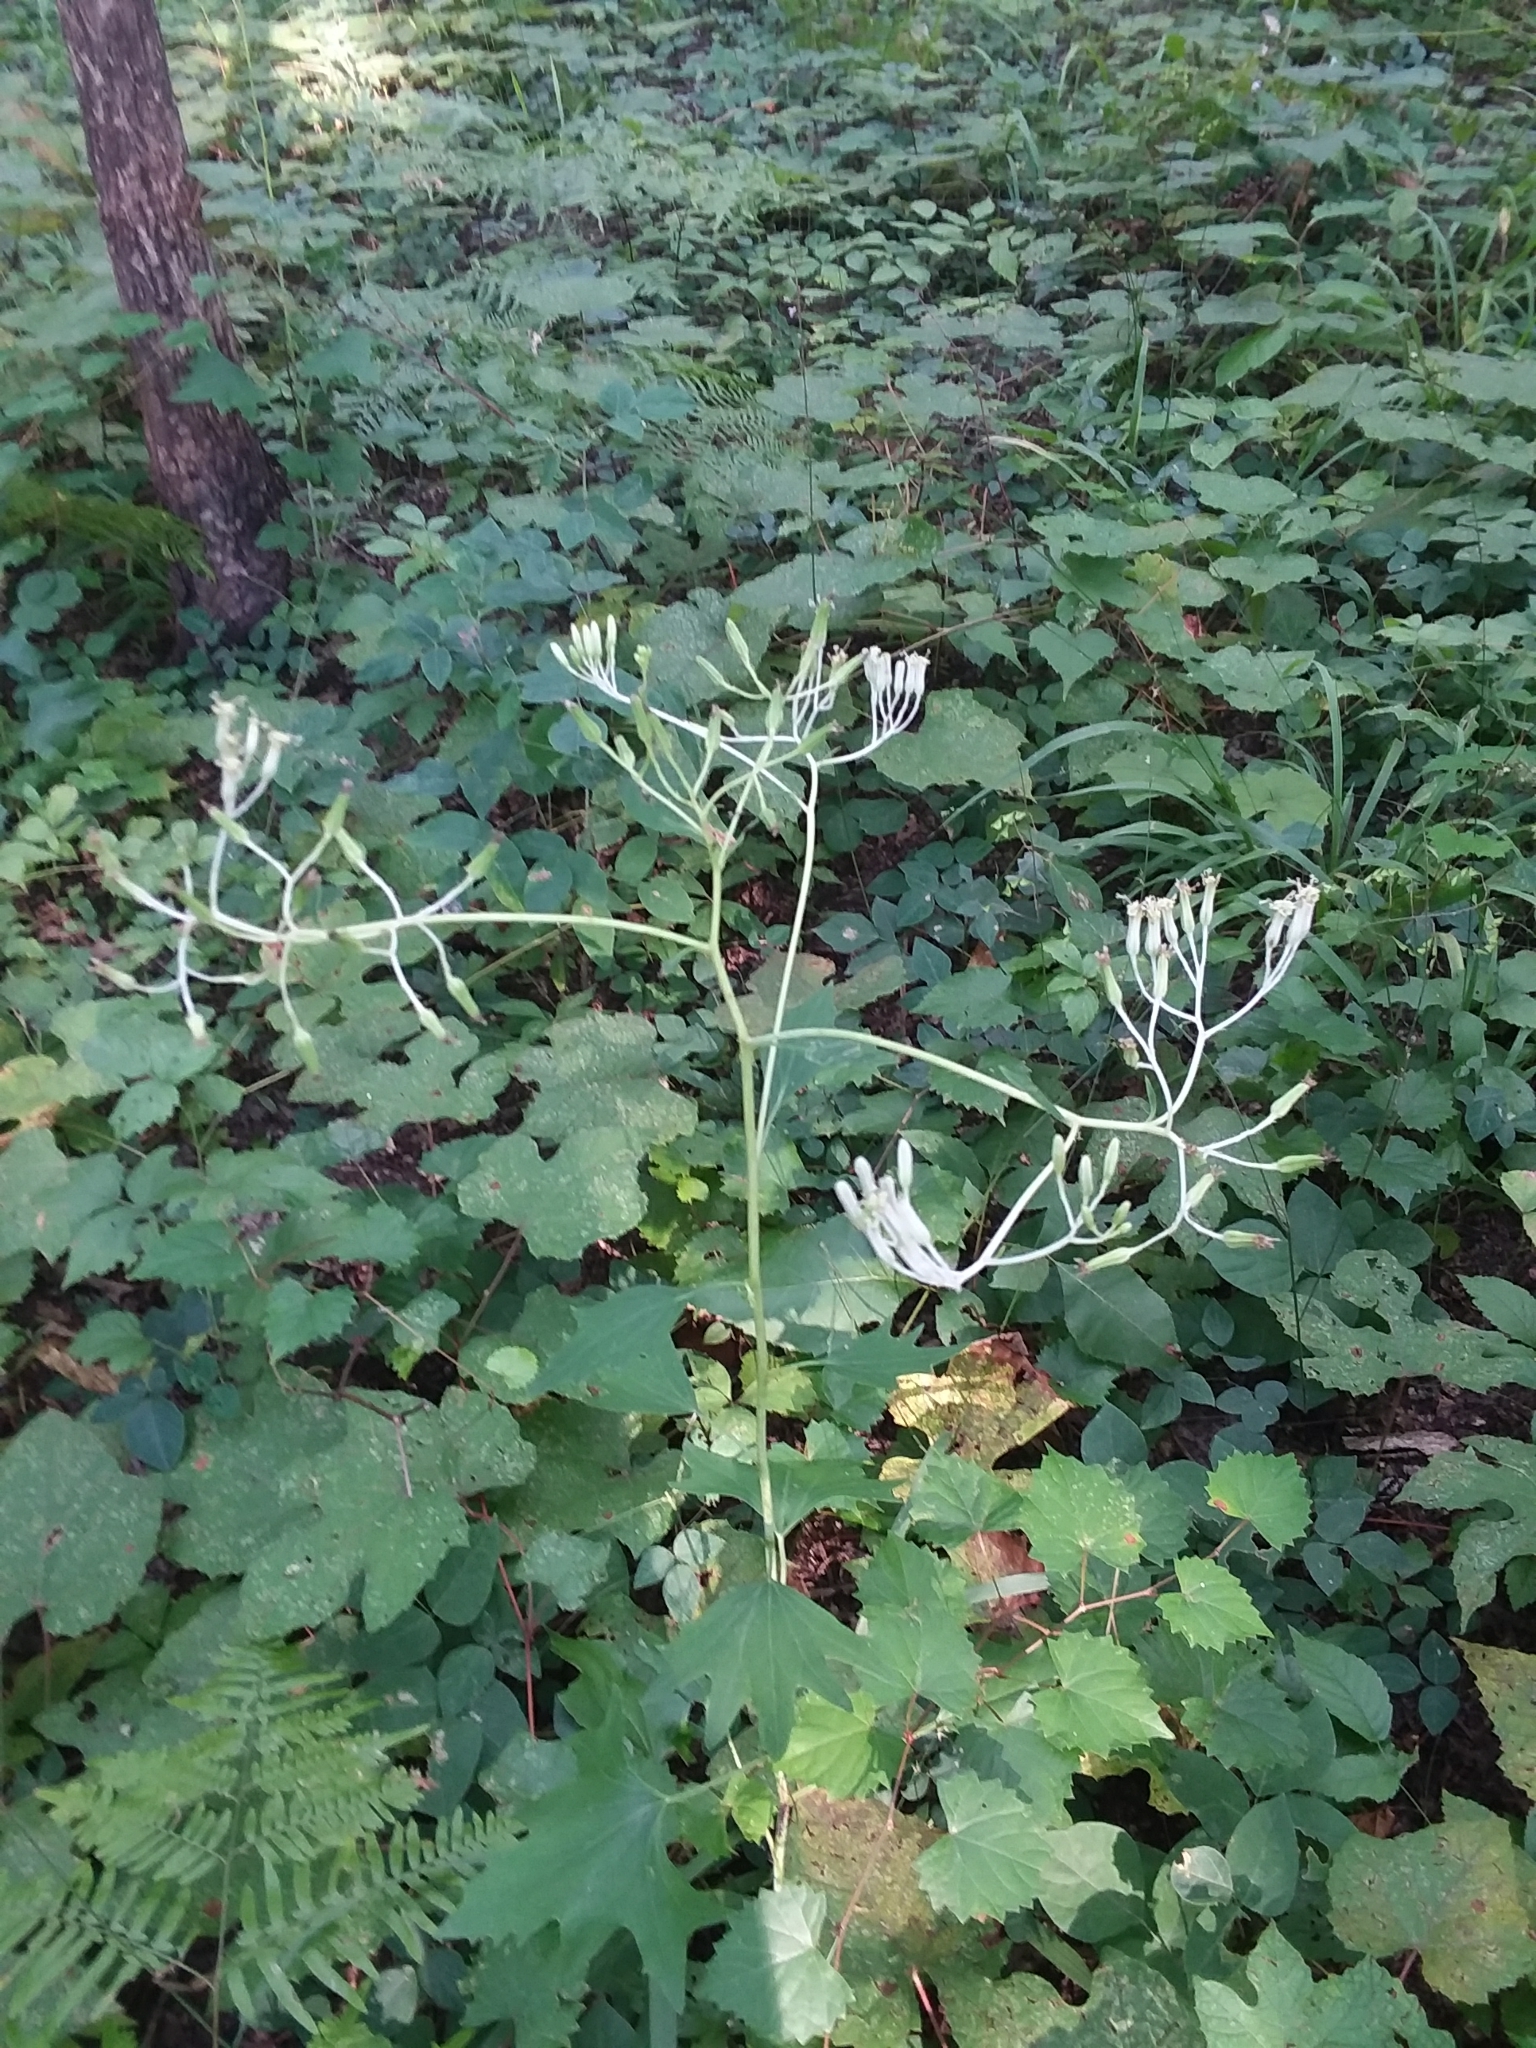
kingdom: Plantae
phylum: Tracheophyta
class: Magnoliopsida
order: Asterales
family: Asteraceae
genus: Arnoglossum
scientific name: Arnoglossum atriplicifolium
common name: Pale indian-plantain
